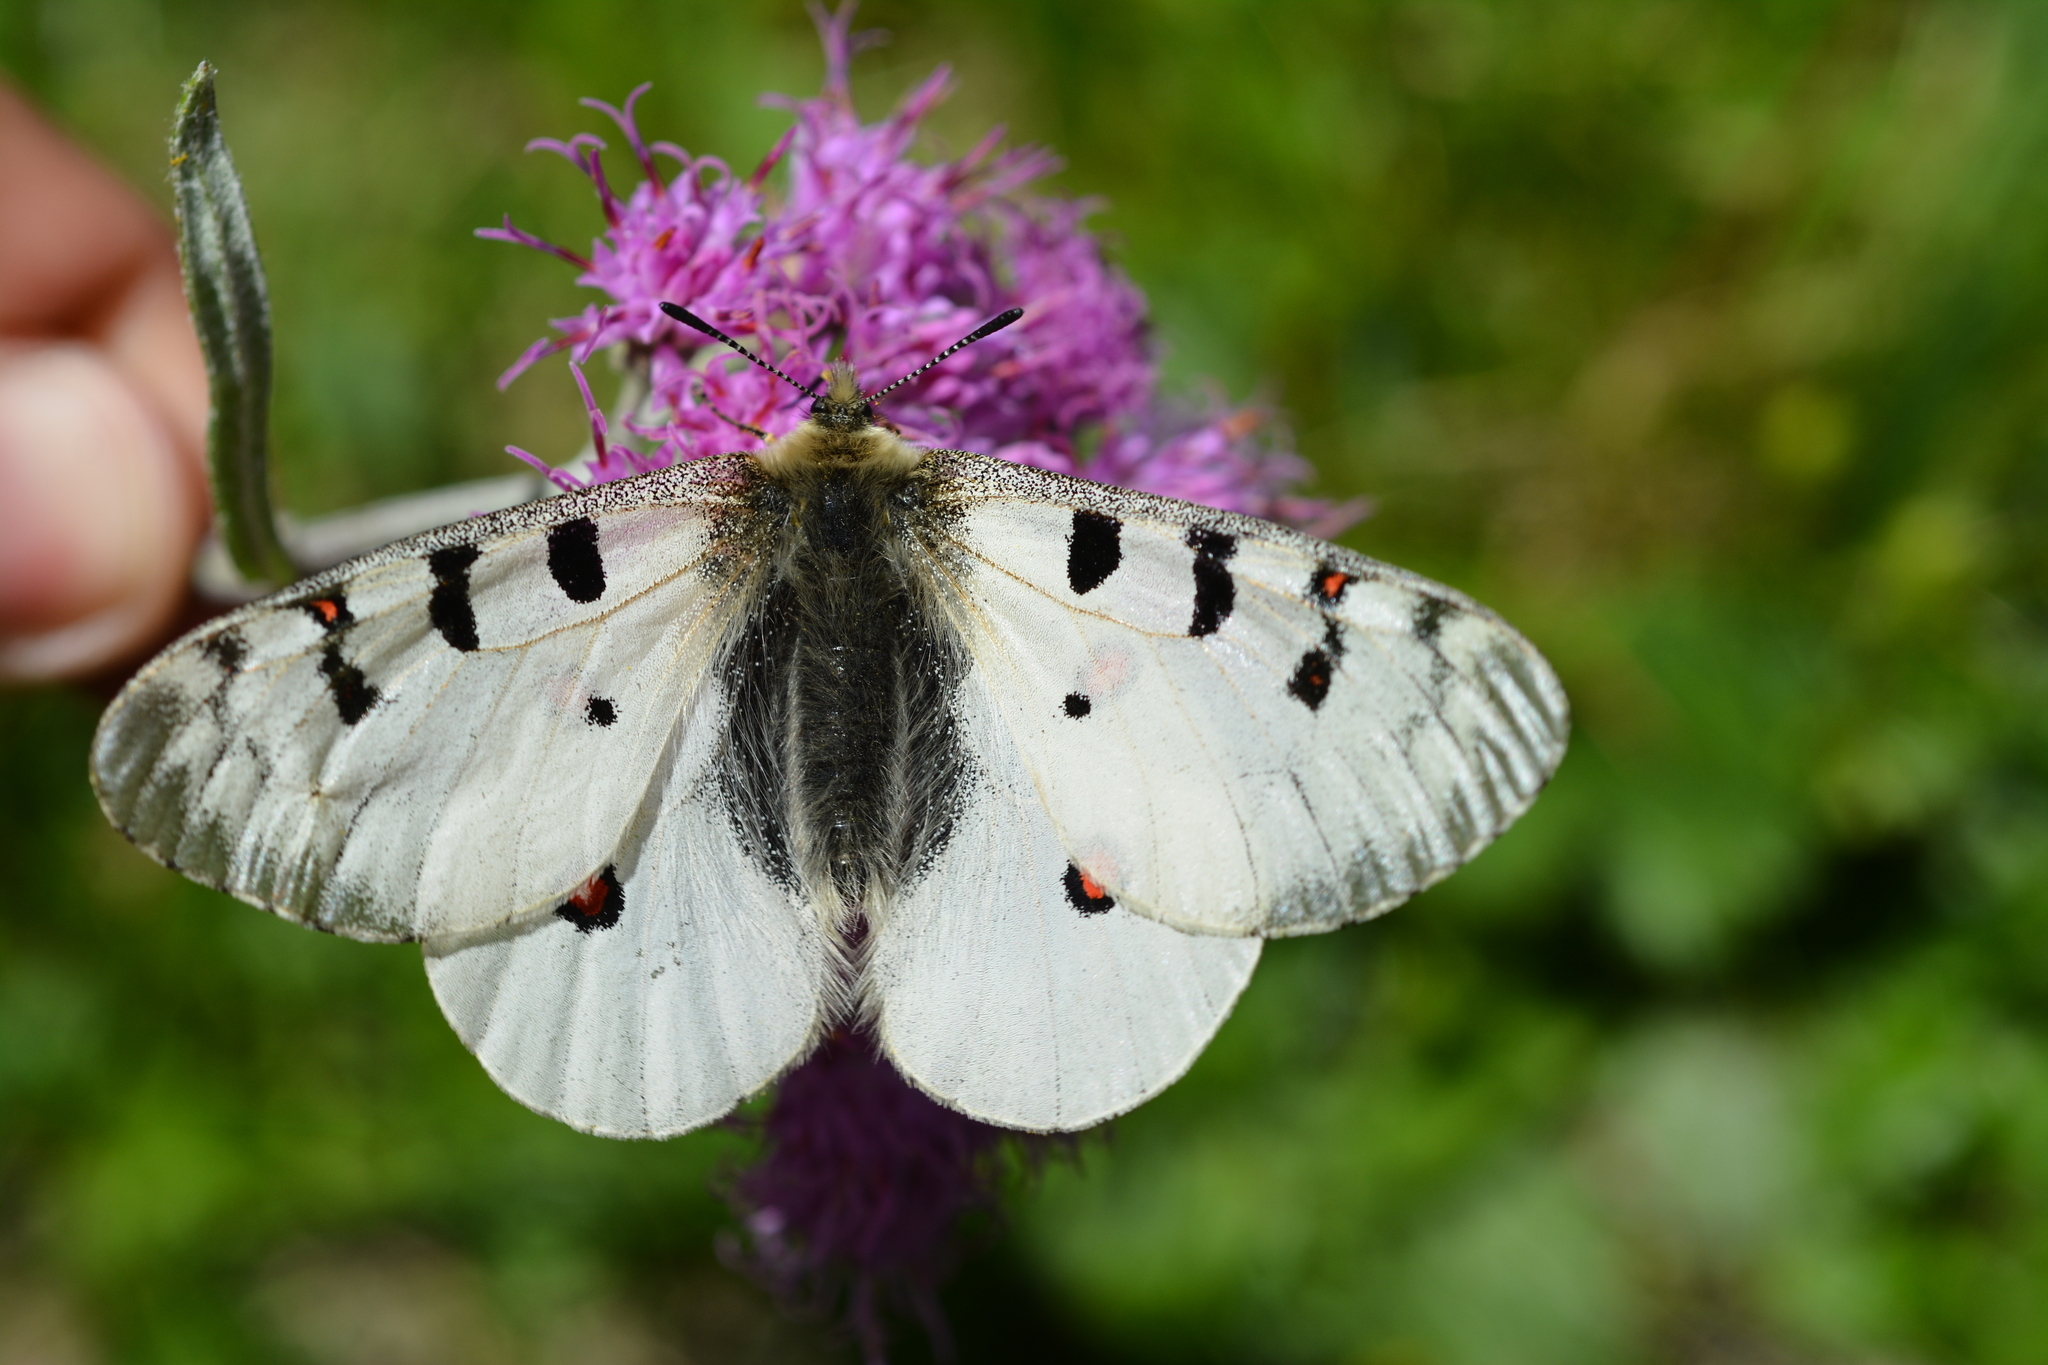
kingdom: Animalia
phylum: Arthropoda
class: Insecta
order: Lepidoptera
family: Papilionidae
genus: Parnassius
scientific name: Parnassius phoebus
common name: Small apollo
